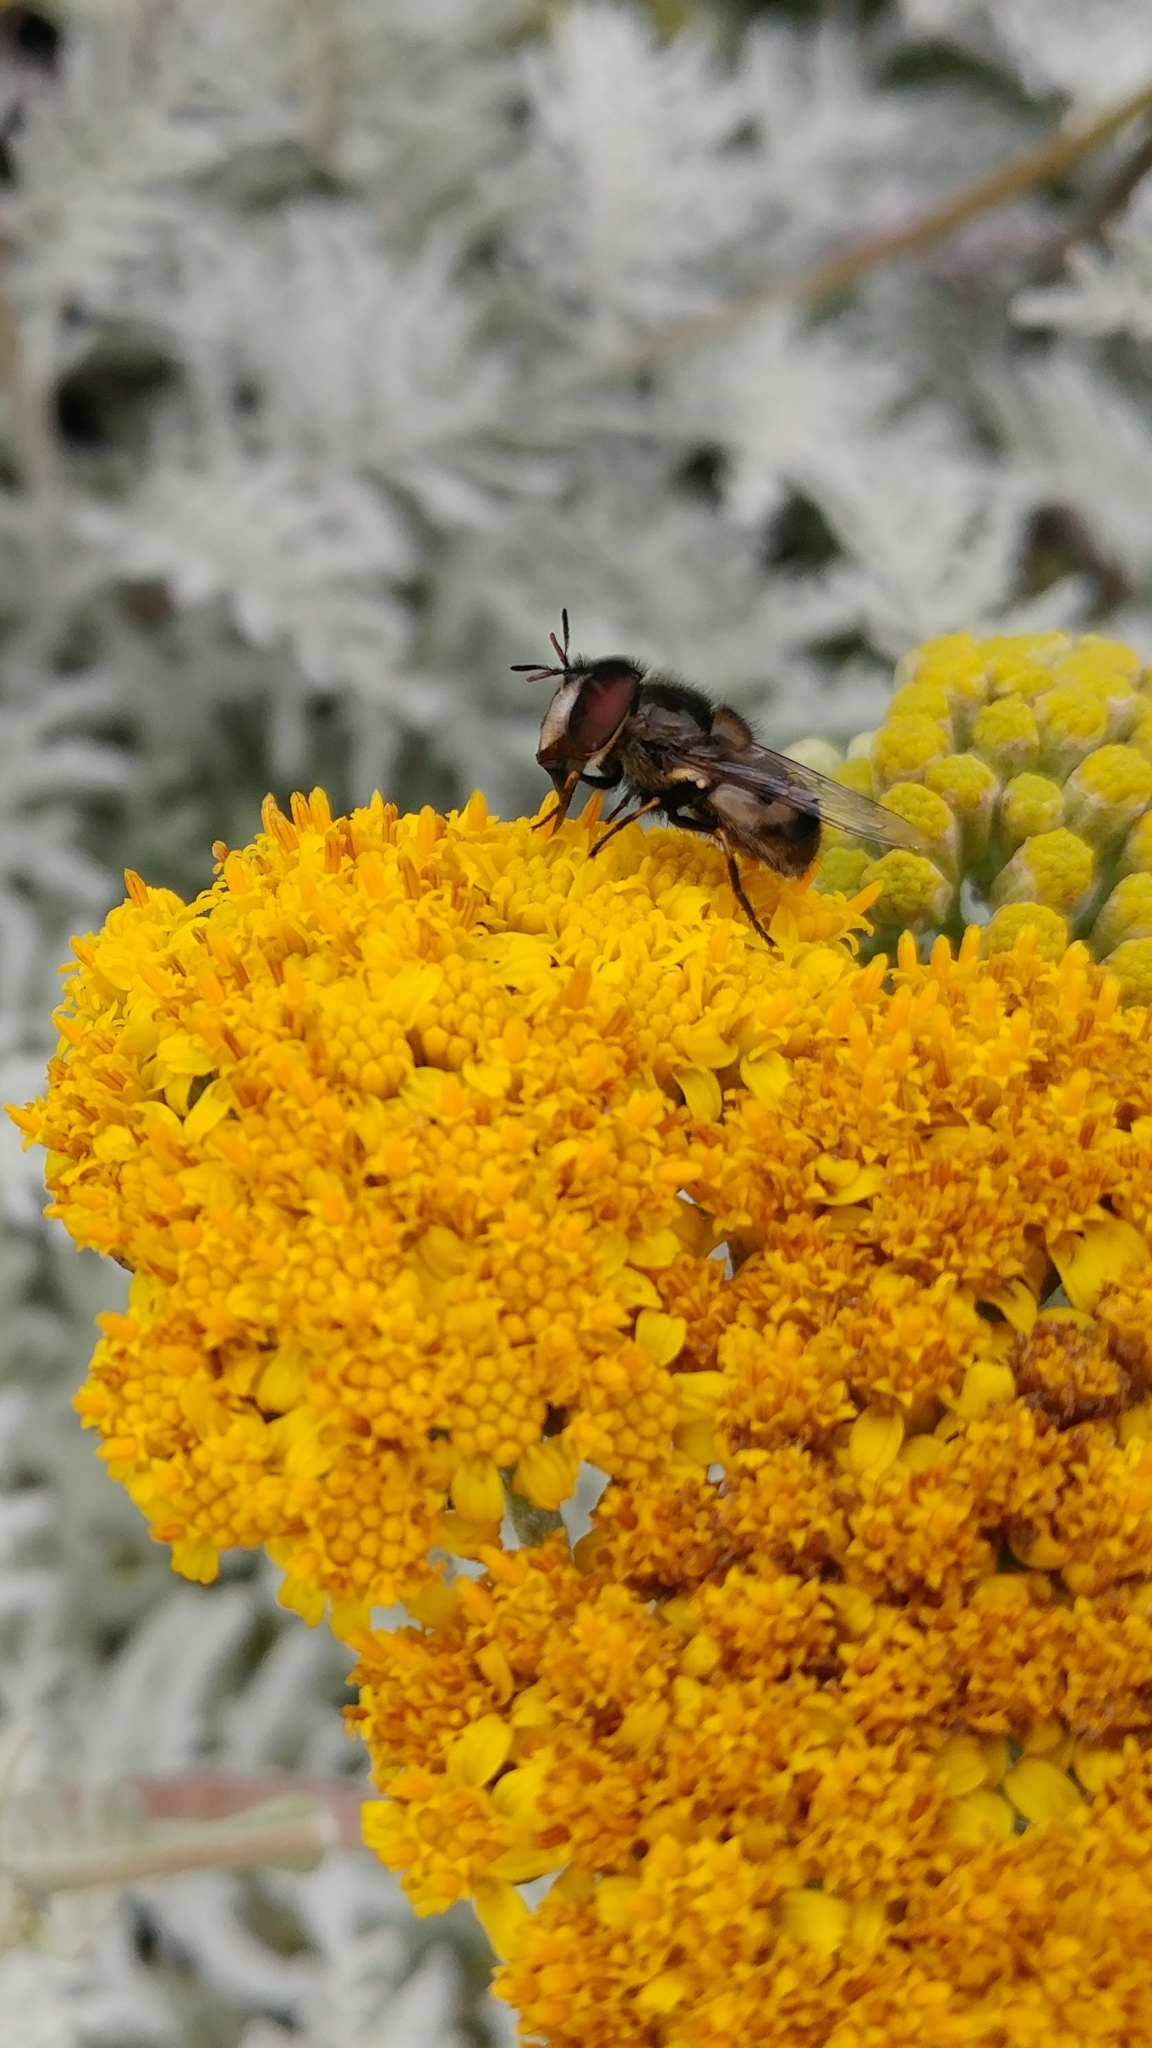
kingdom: Animalia
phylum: Arthropoda
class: Insecta
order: Diptera
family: Syrphidae
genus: Copestylum
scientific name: Copestylum lentum
